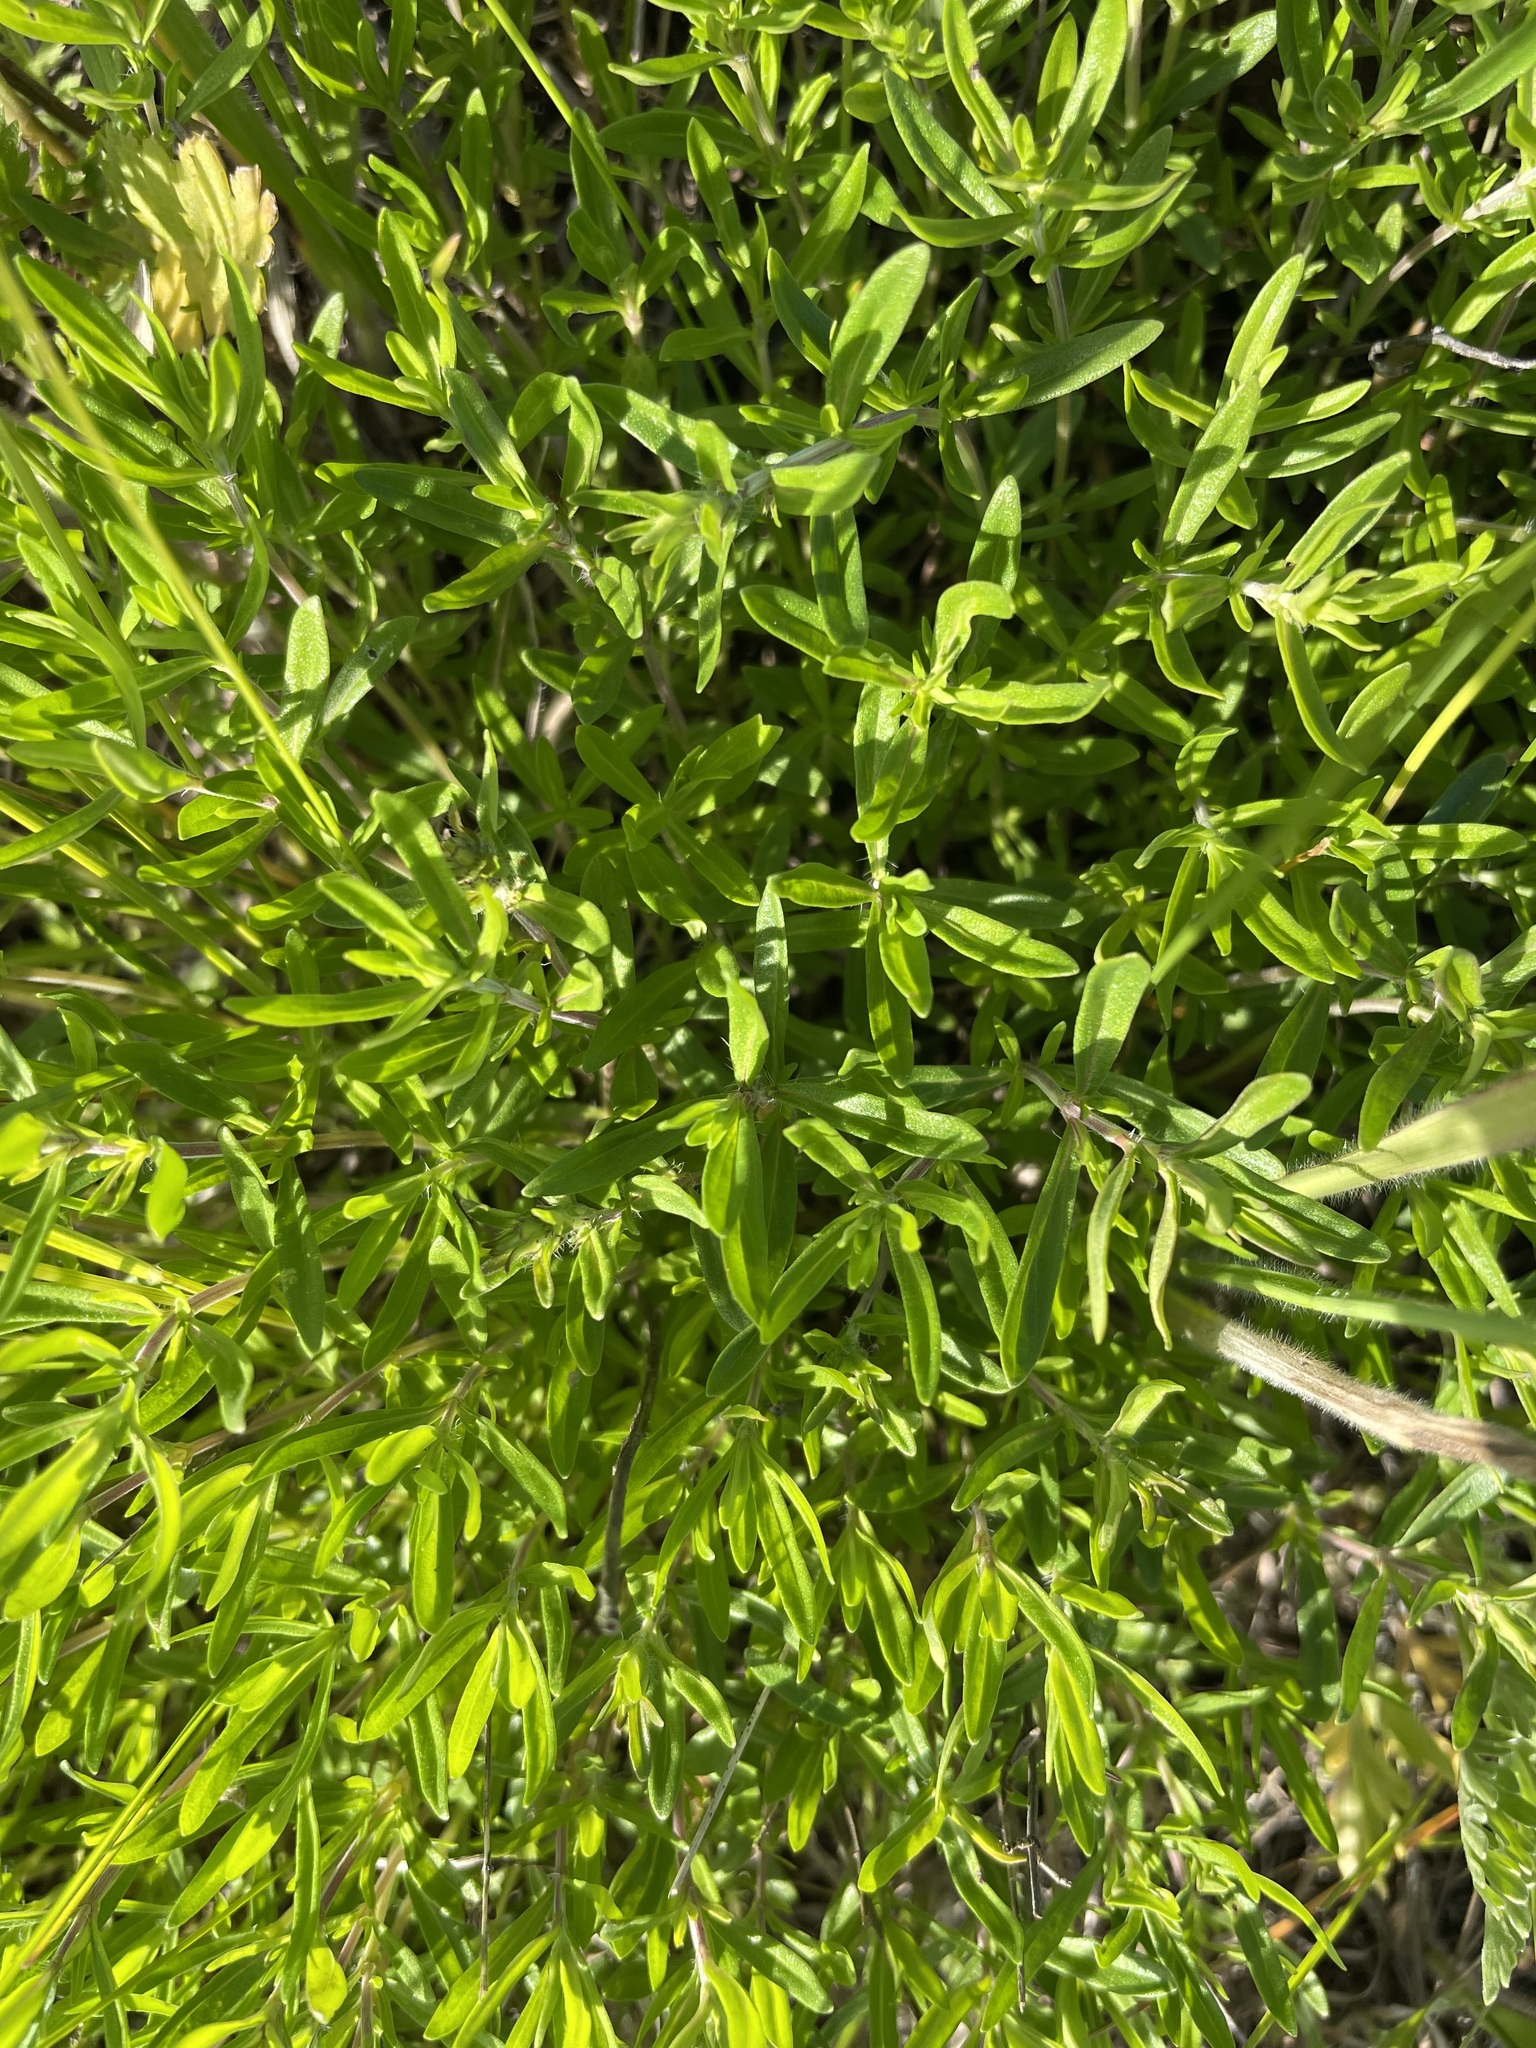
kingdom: Plantae
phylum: Tracheophyta
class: Magnoliopsida
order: Lamiales
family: Lamiaceae
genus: Thymus
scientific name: Thymus pannonicus
